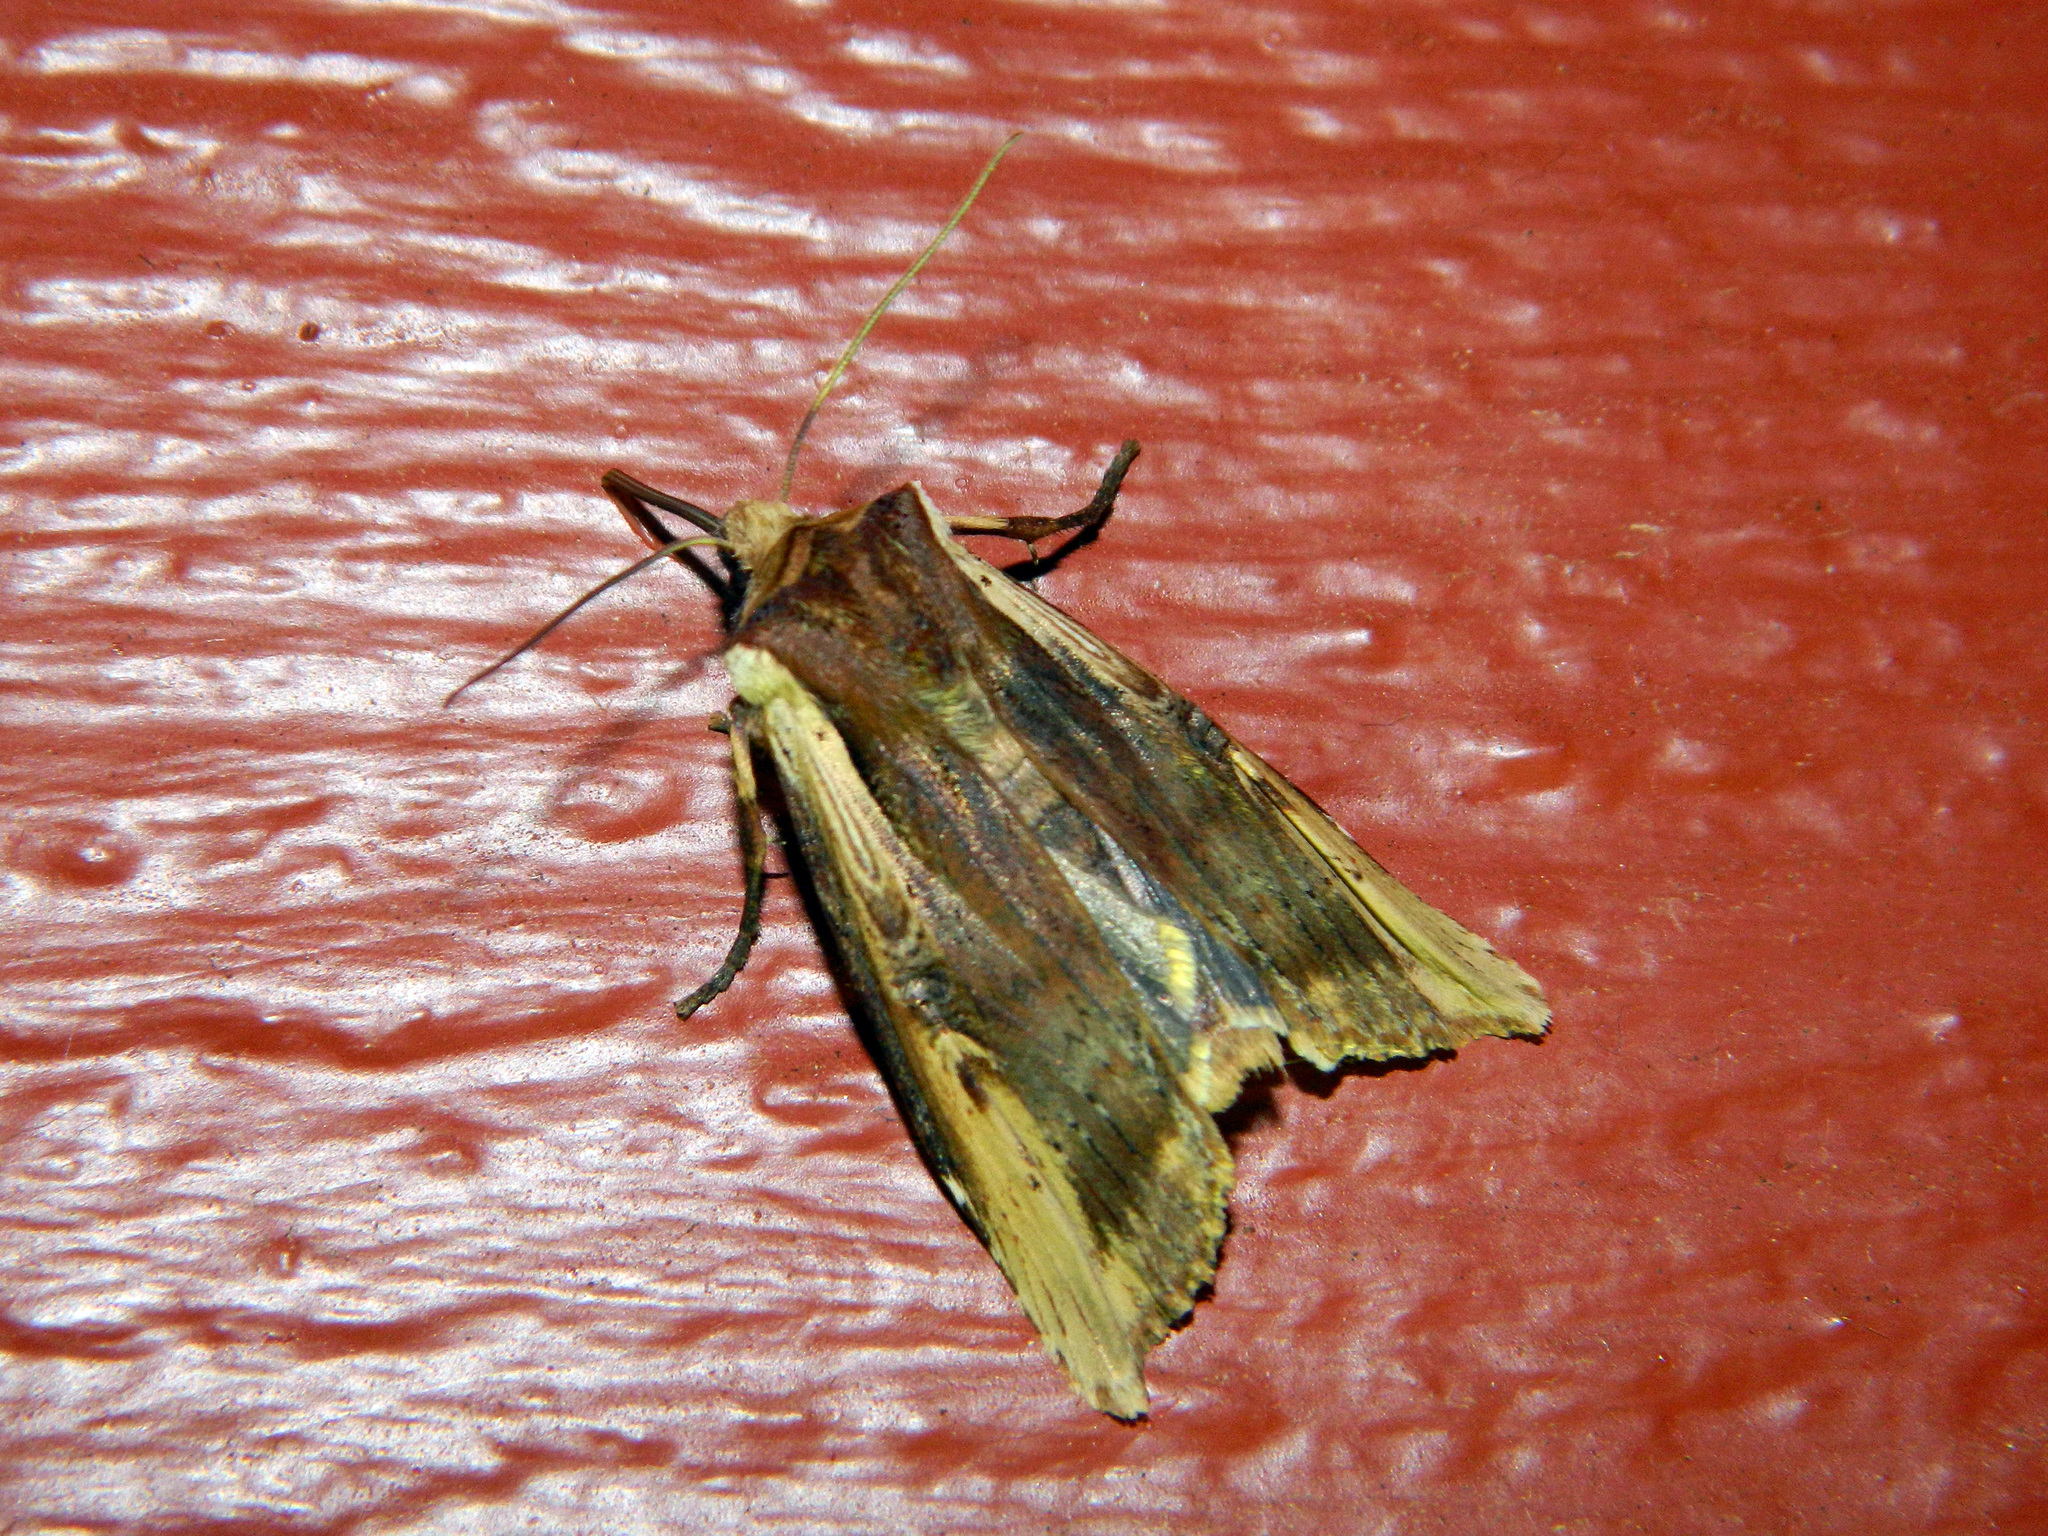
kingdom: Animalia
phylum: Arthropoda
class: Insecta
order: Lepidoptera
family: Noctuidae
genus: Xylena
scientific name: Xylena curvimacula
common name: Dot-and-dash swordgrass moth
